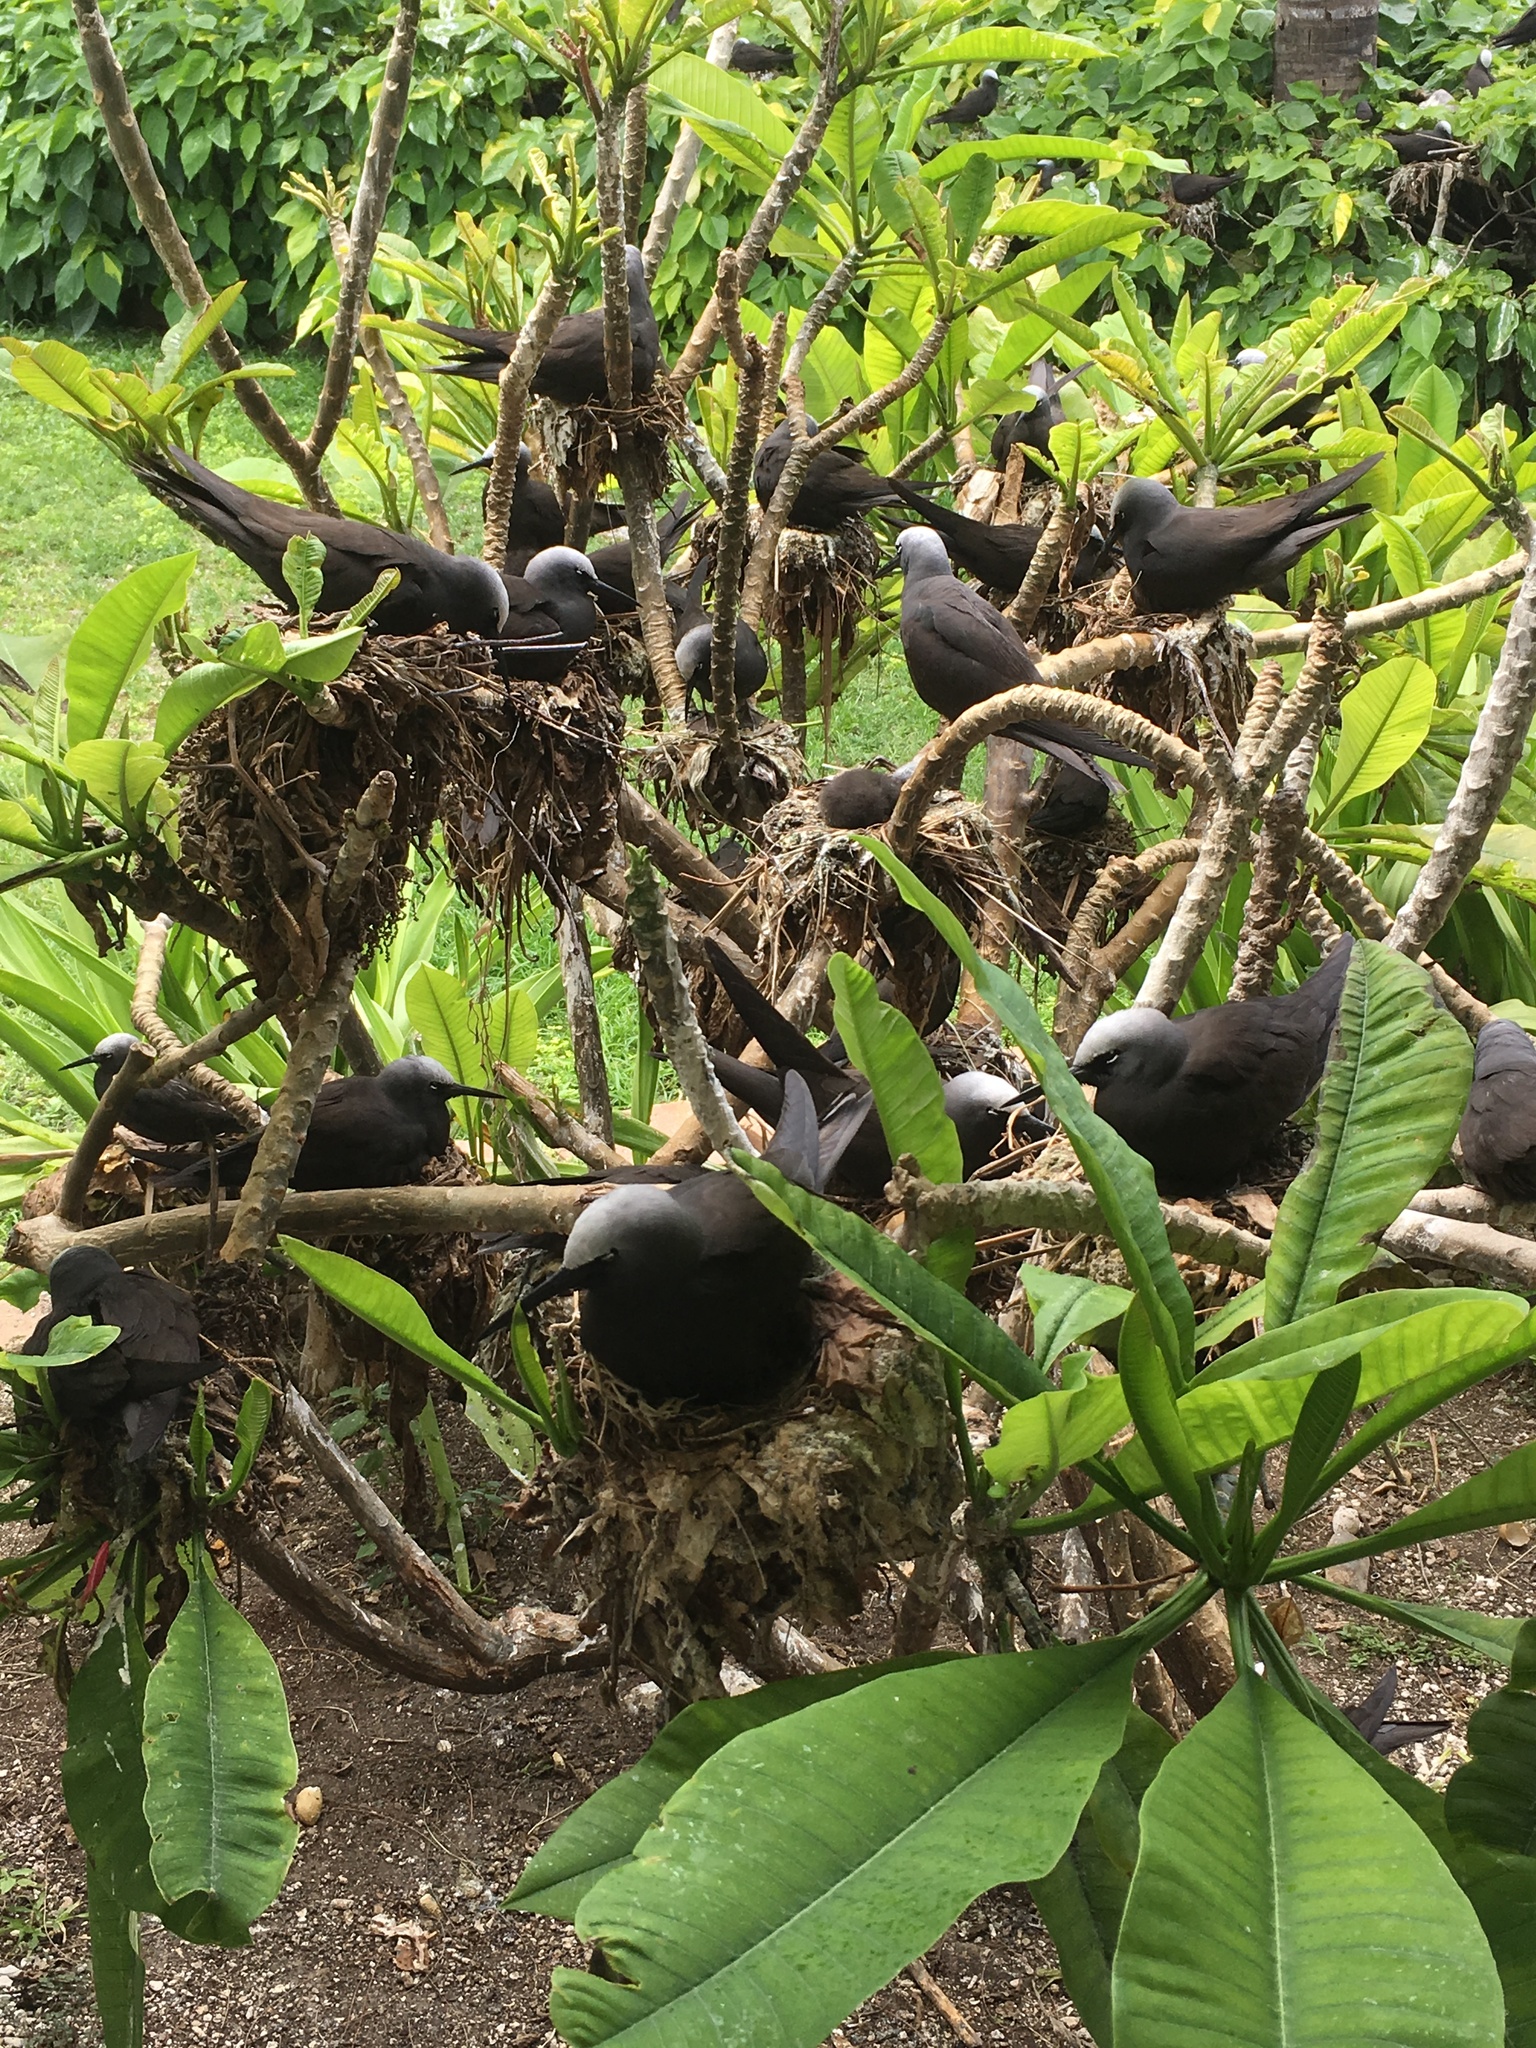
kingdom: Animalia
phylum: Chordata
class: Aves
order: Charadriiformes
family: Laridae
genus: Anous
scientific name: Anous minutus
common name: Black noddy
